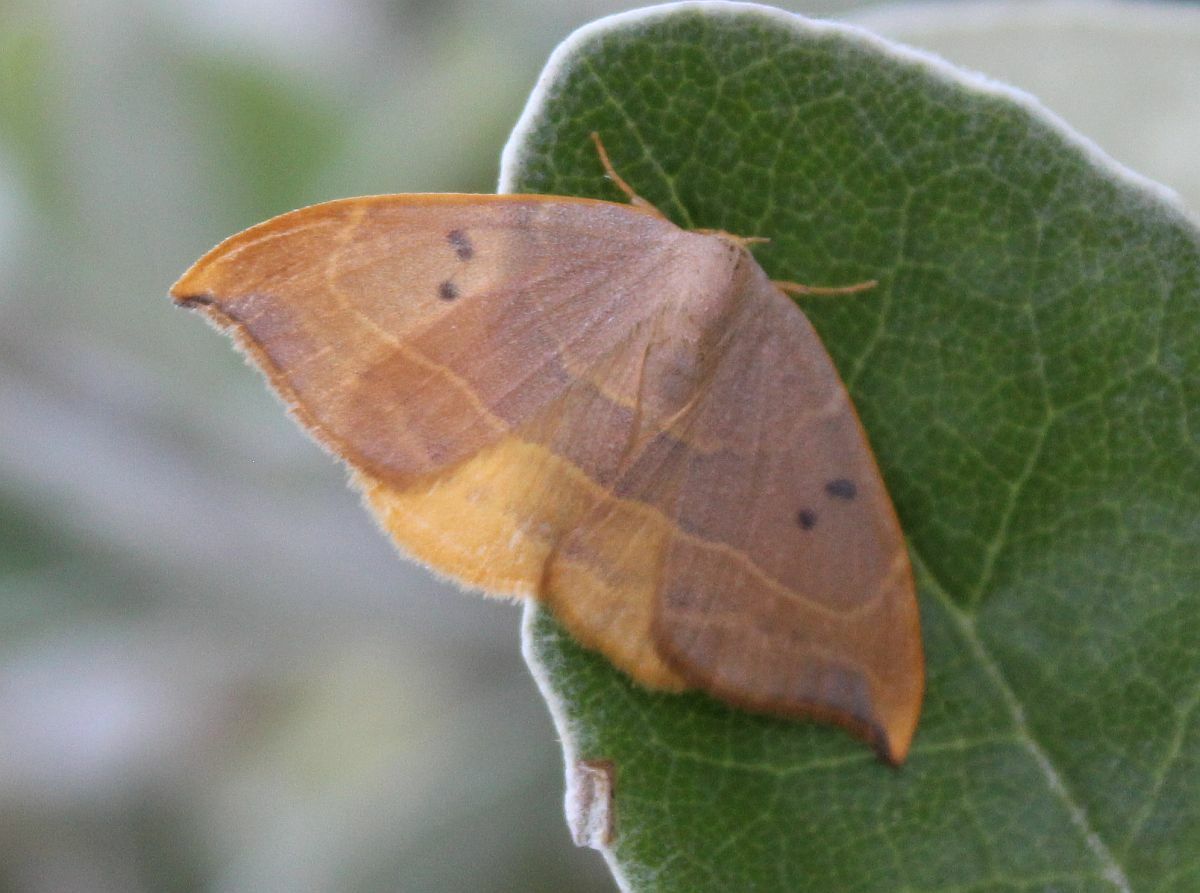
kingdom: Animalia
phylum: Arthropoda
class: Insecta
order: Lepidoptera
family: Drepanidae
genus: Watsonalla
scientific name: Watsonalla binaria
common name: Oak hook-tip
